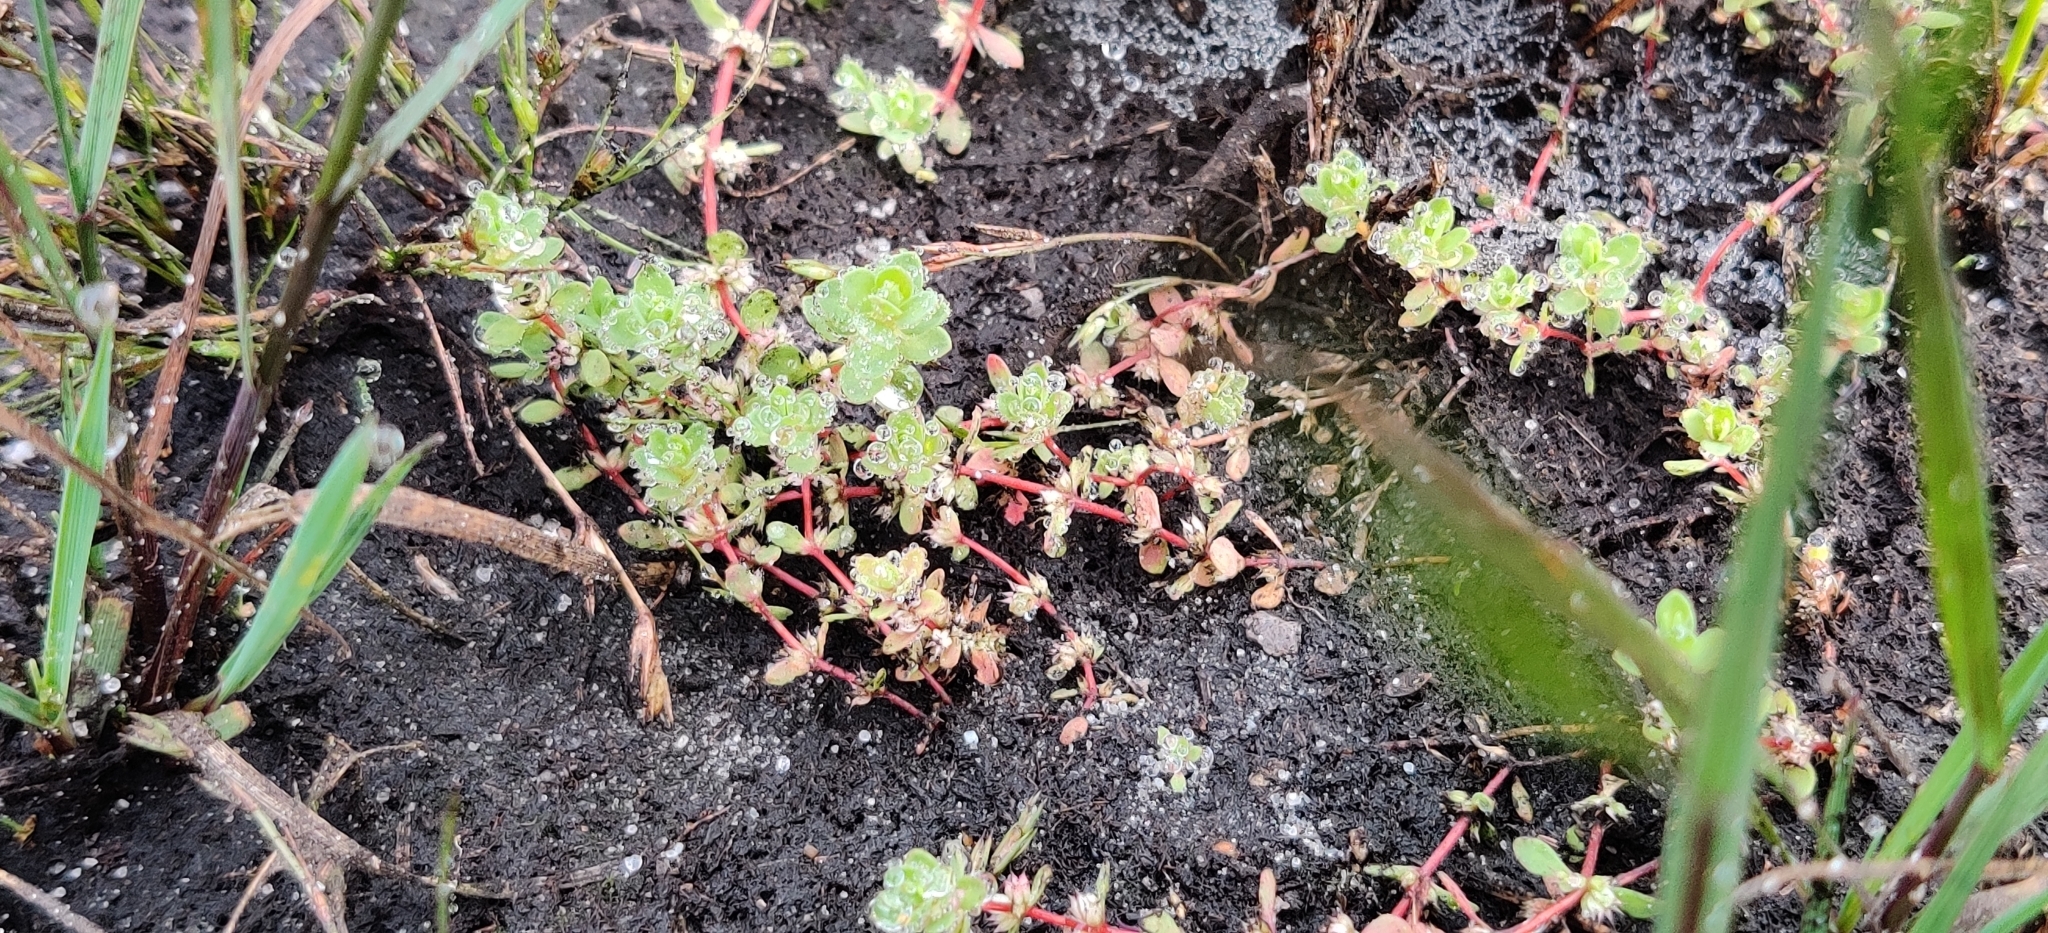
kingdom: Plantae
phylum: Tracheophyta
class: Magnoliopsida
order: Caryophyllales
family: Caryophyllaceae
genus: Illecebrum
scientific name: Illecebrum verticillatum
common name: Coral necklace
